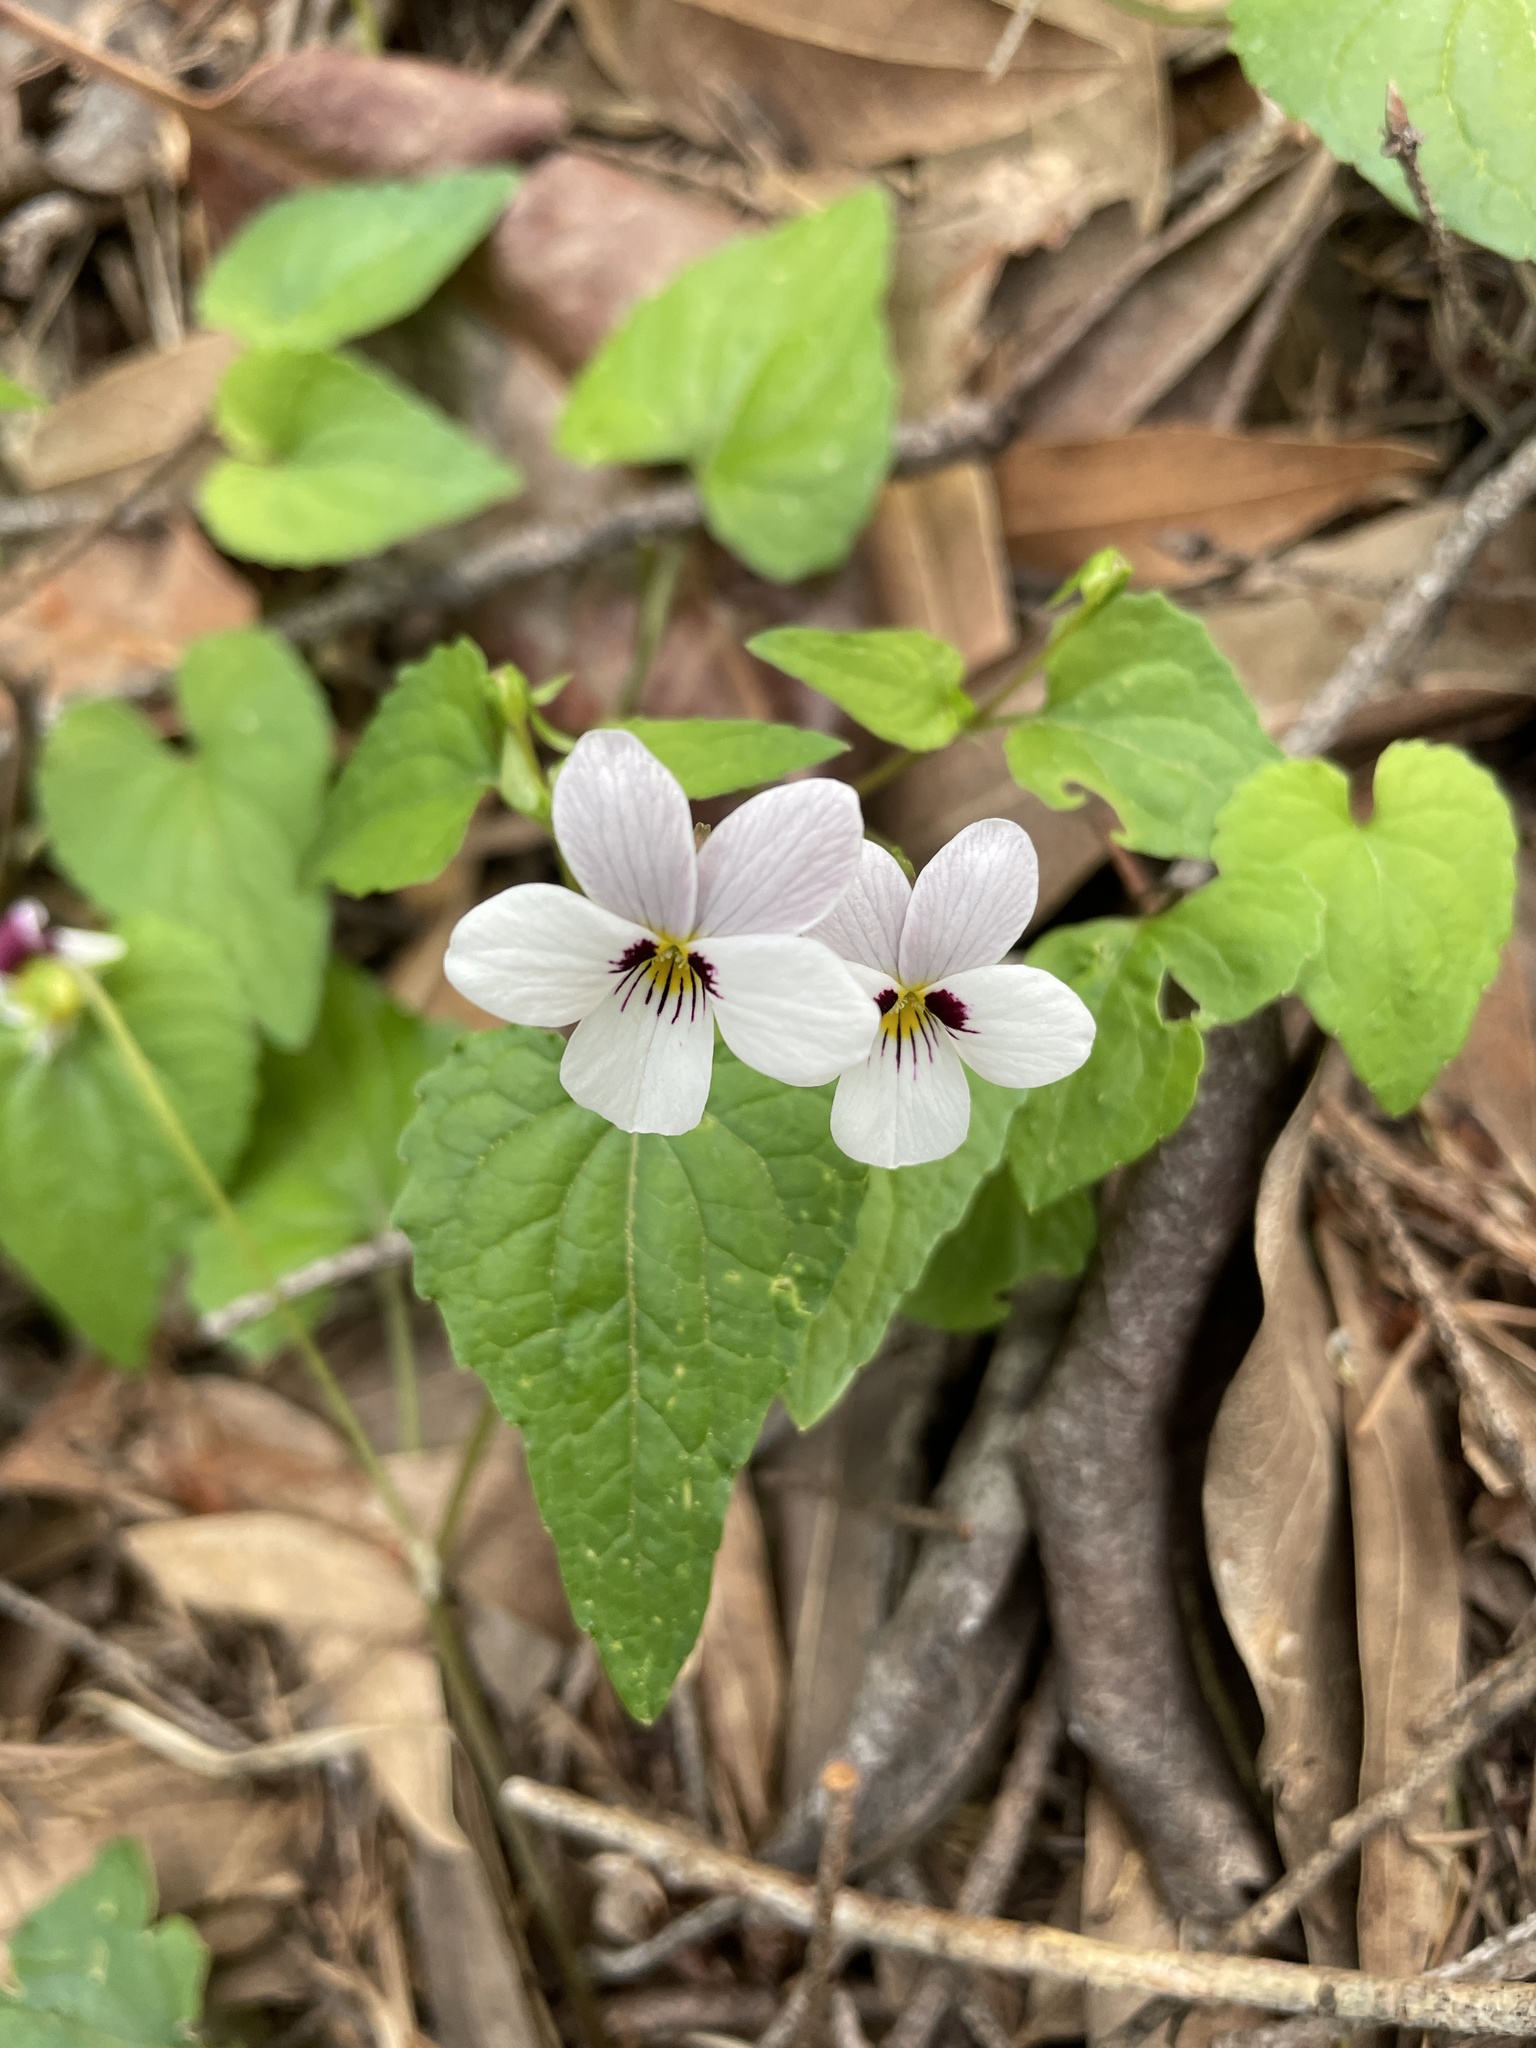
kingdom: Plantae
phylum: Tracheophyta
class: Magnoliopsida
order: Malpighiales
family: Violaceae
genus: Viola
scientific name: Viola ocellata
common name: Western heart's ease
